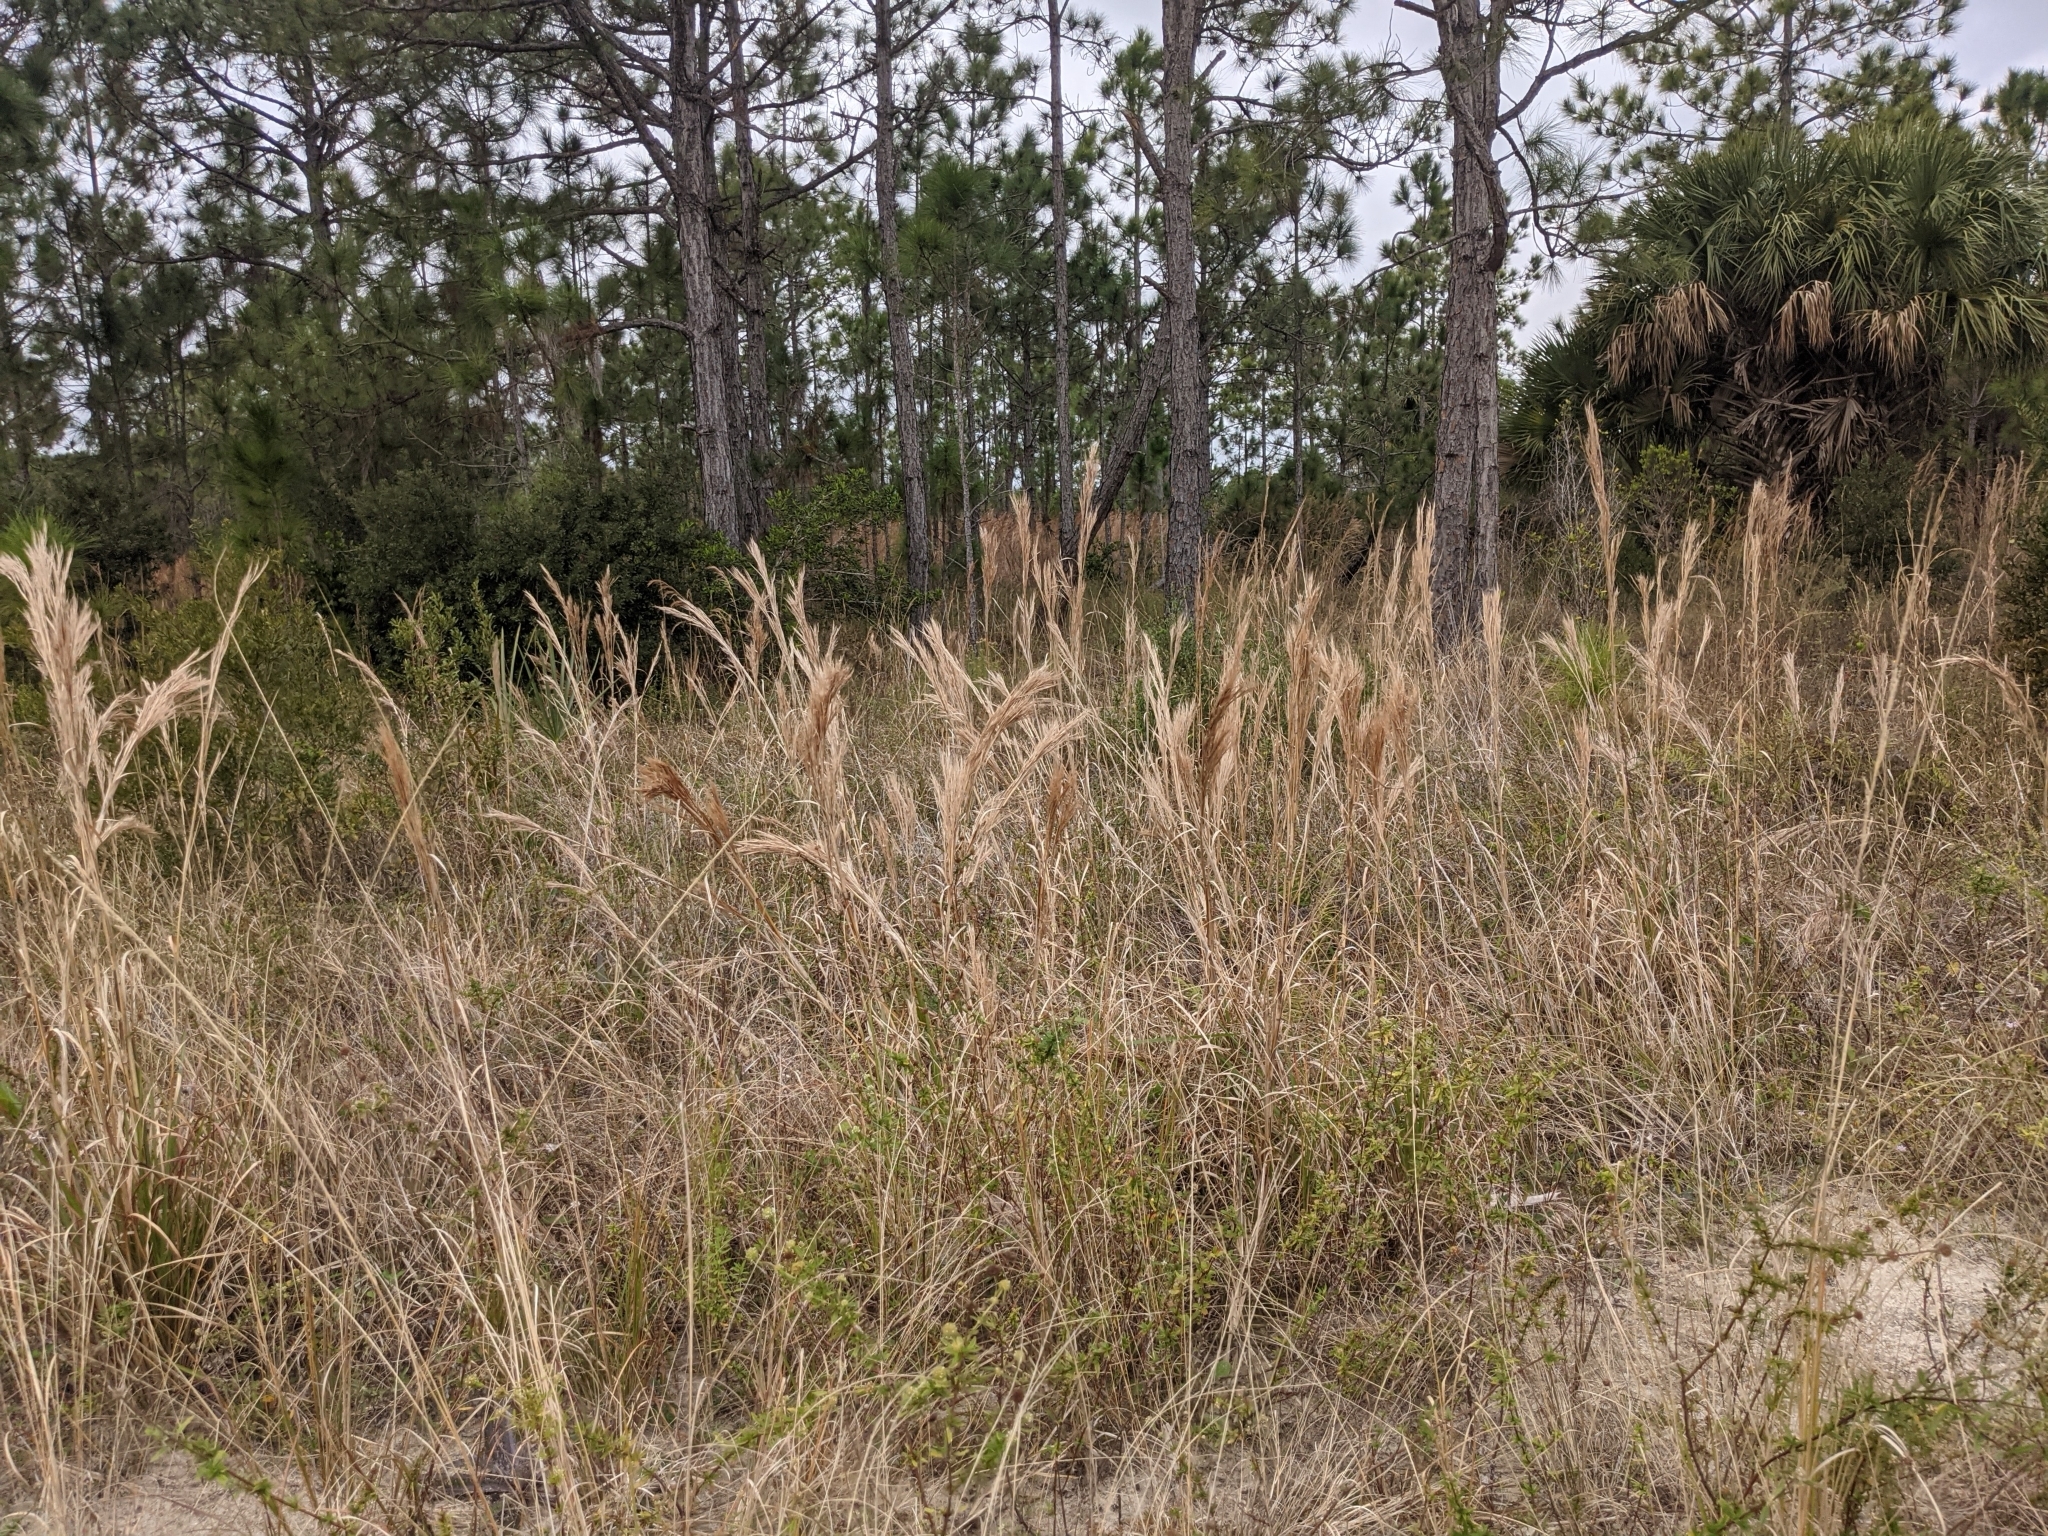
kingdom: Plantae
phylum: Tracheophyta
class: Liliopsida
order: Poales
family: Poaceae
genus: Andropogon
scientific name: Andropogon tenuispatheus
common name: Bushy bluestem
